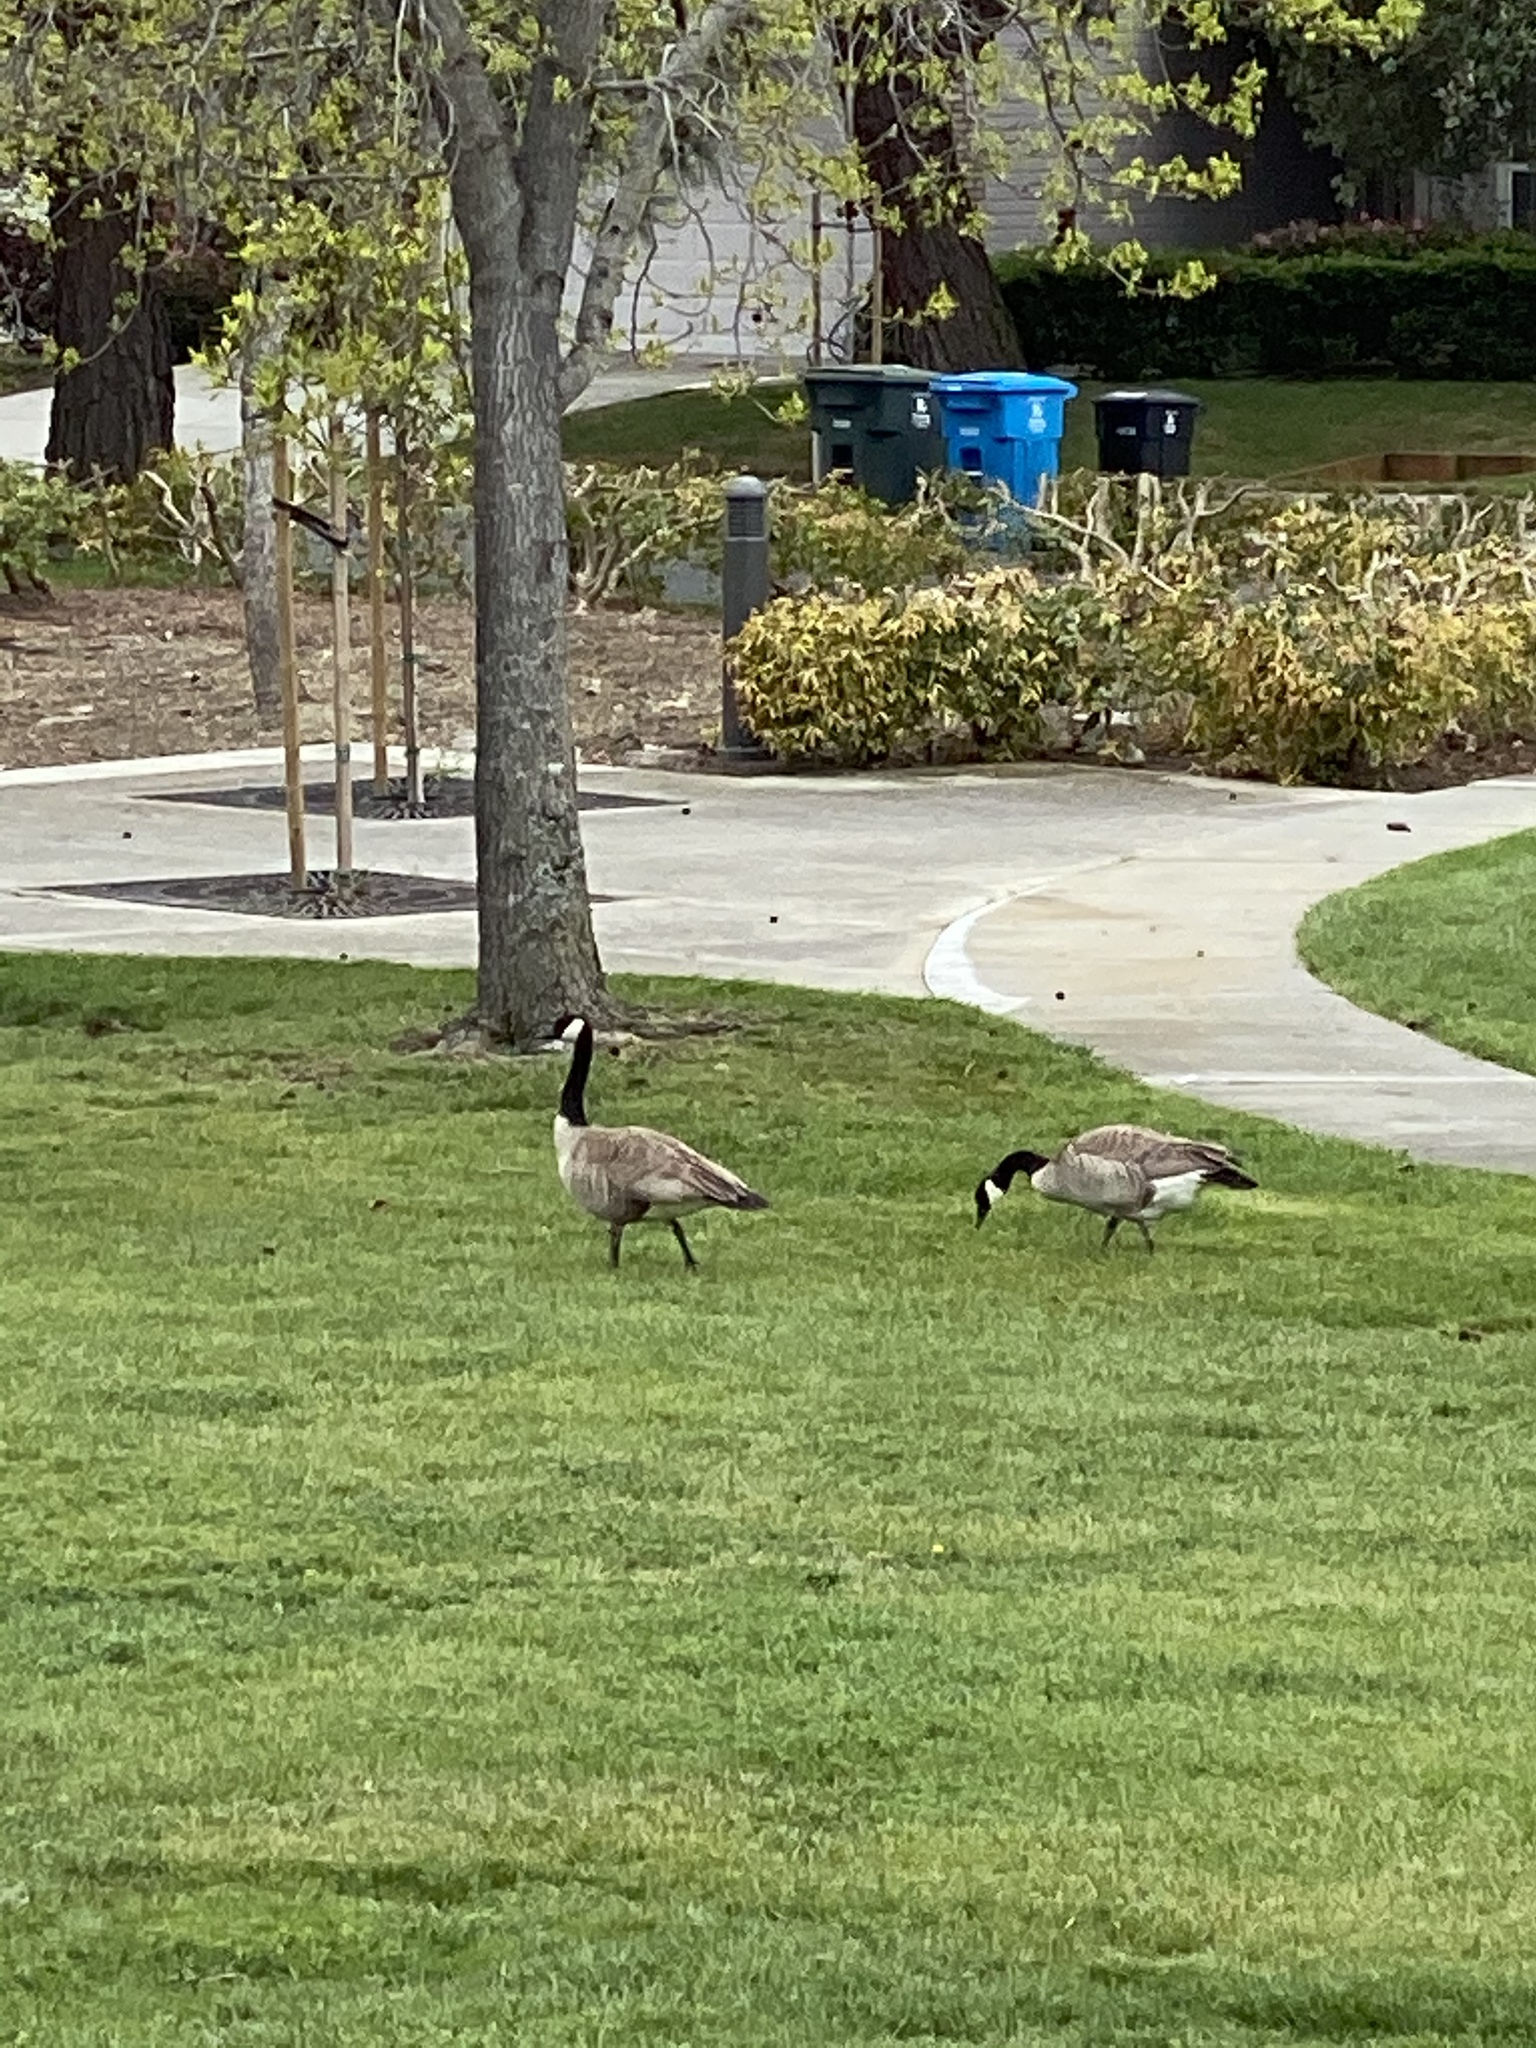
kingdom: Animalia
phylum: Chordata
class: Aves
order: Anseriformes
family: Anatidae
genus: Branta
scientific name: Branta canadensis
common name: Canada goose
